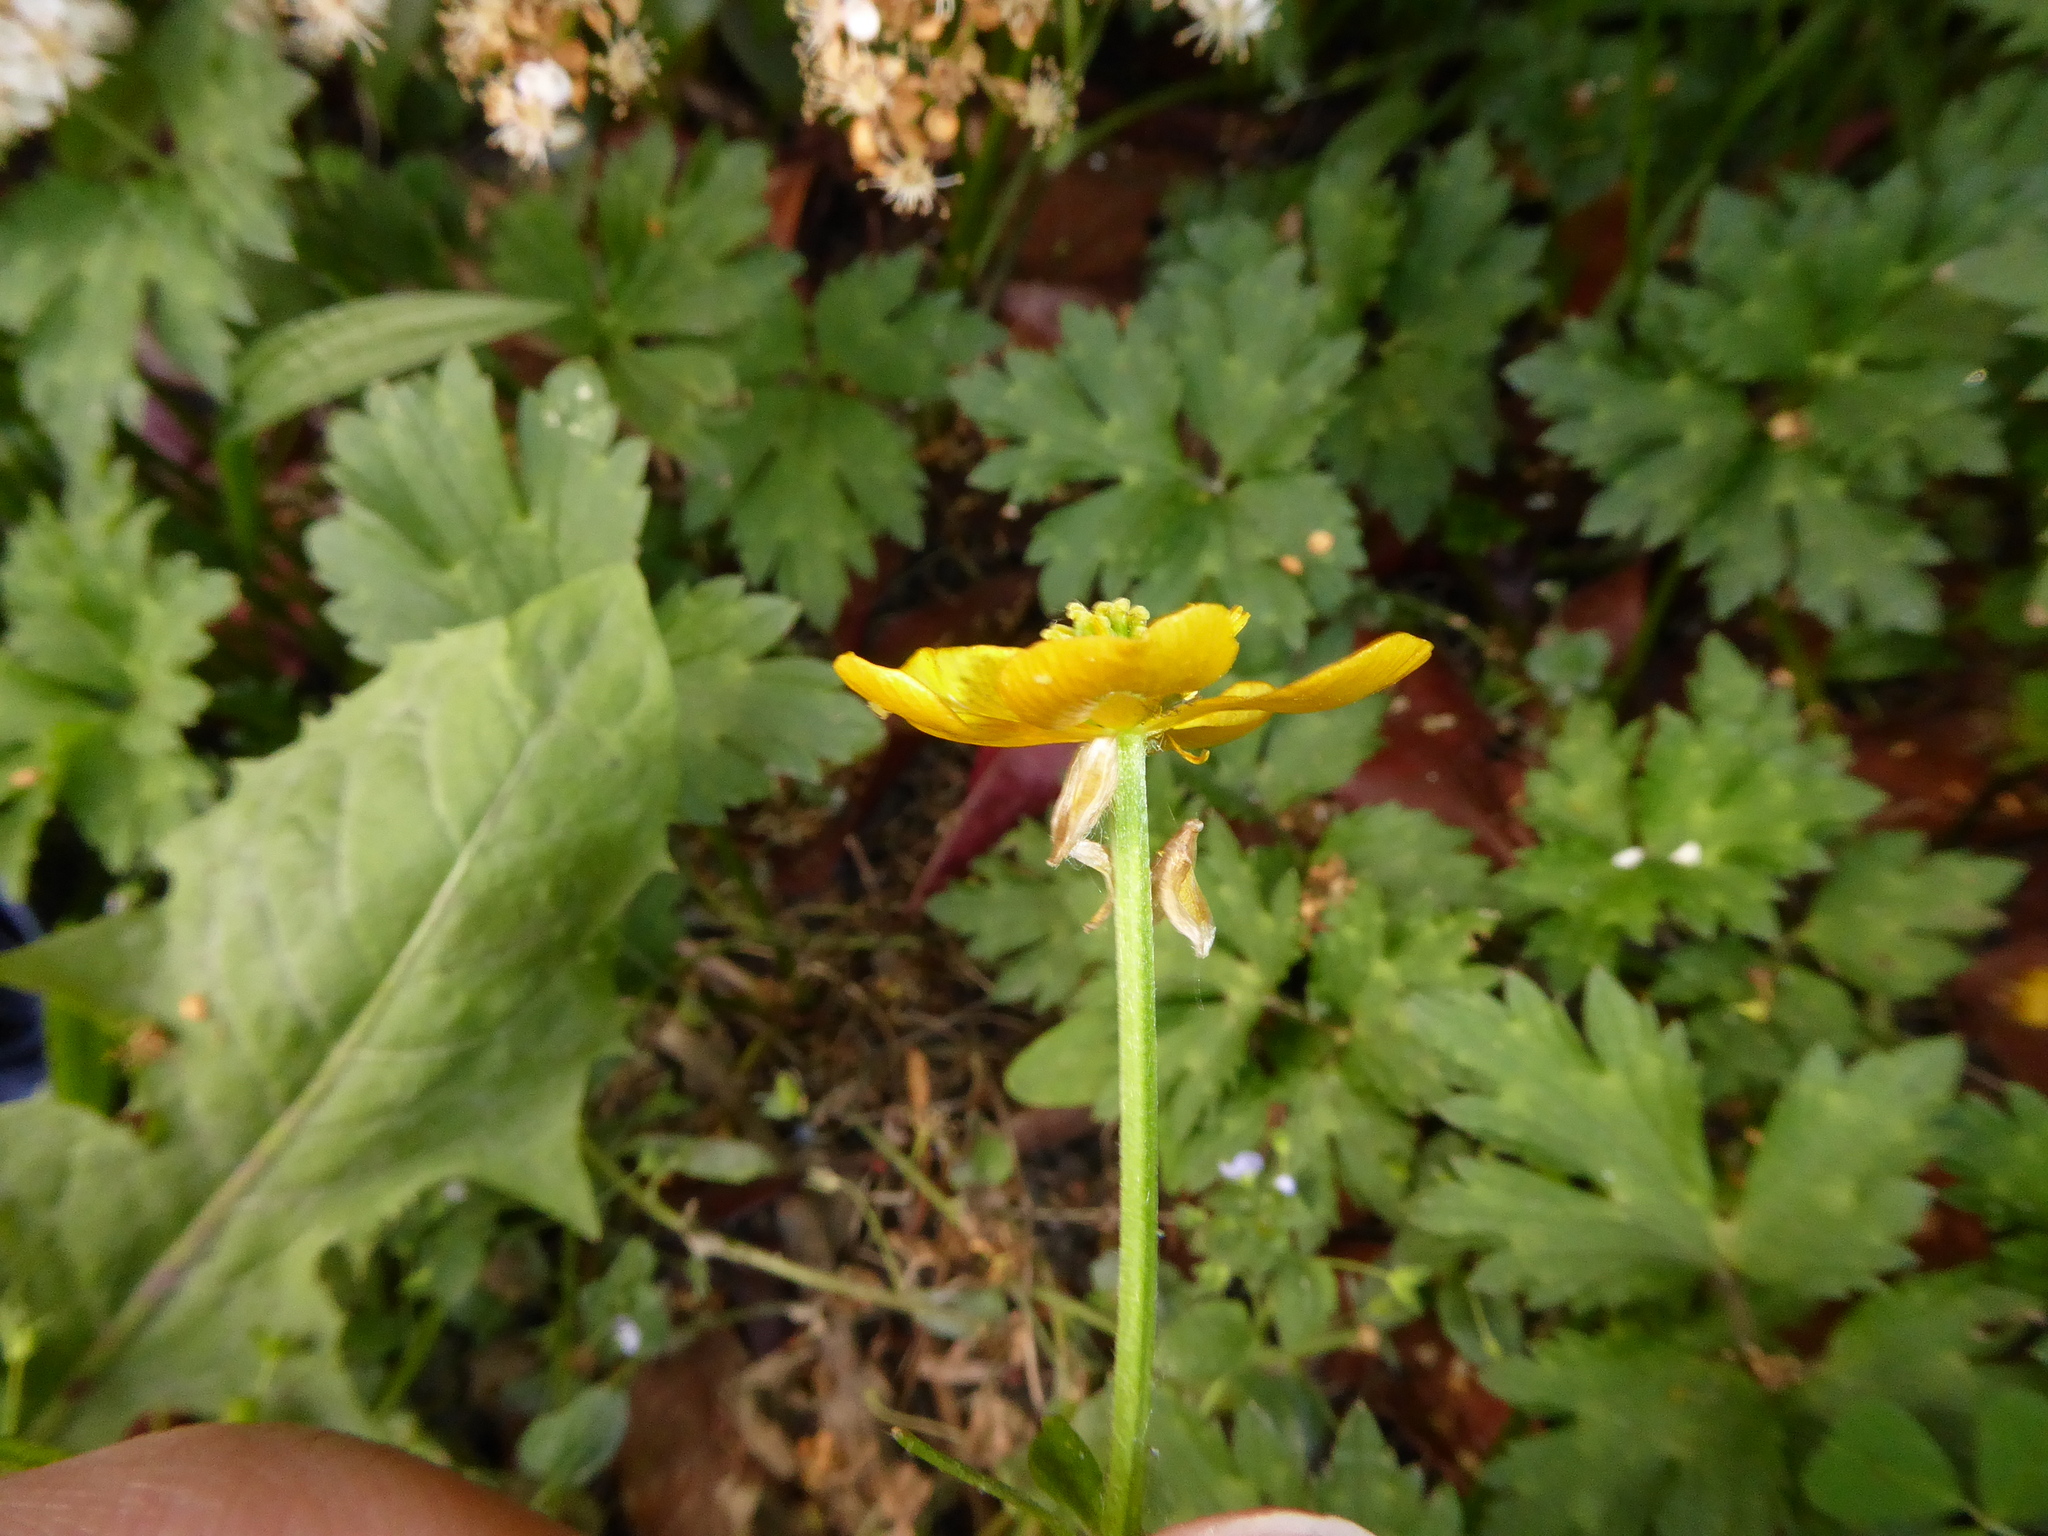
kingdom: Plantae
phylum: Tracheophyta
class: Magnoliopsida
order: Ranunculales
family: Ranunculaceae
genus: Ranunculus
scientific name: Ranunculus repens
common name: Creeping buttercup
